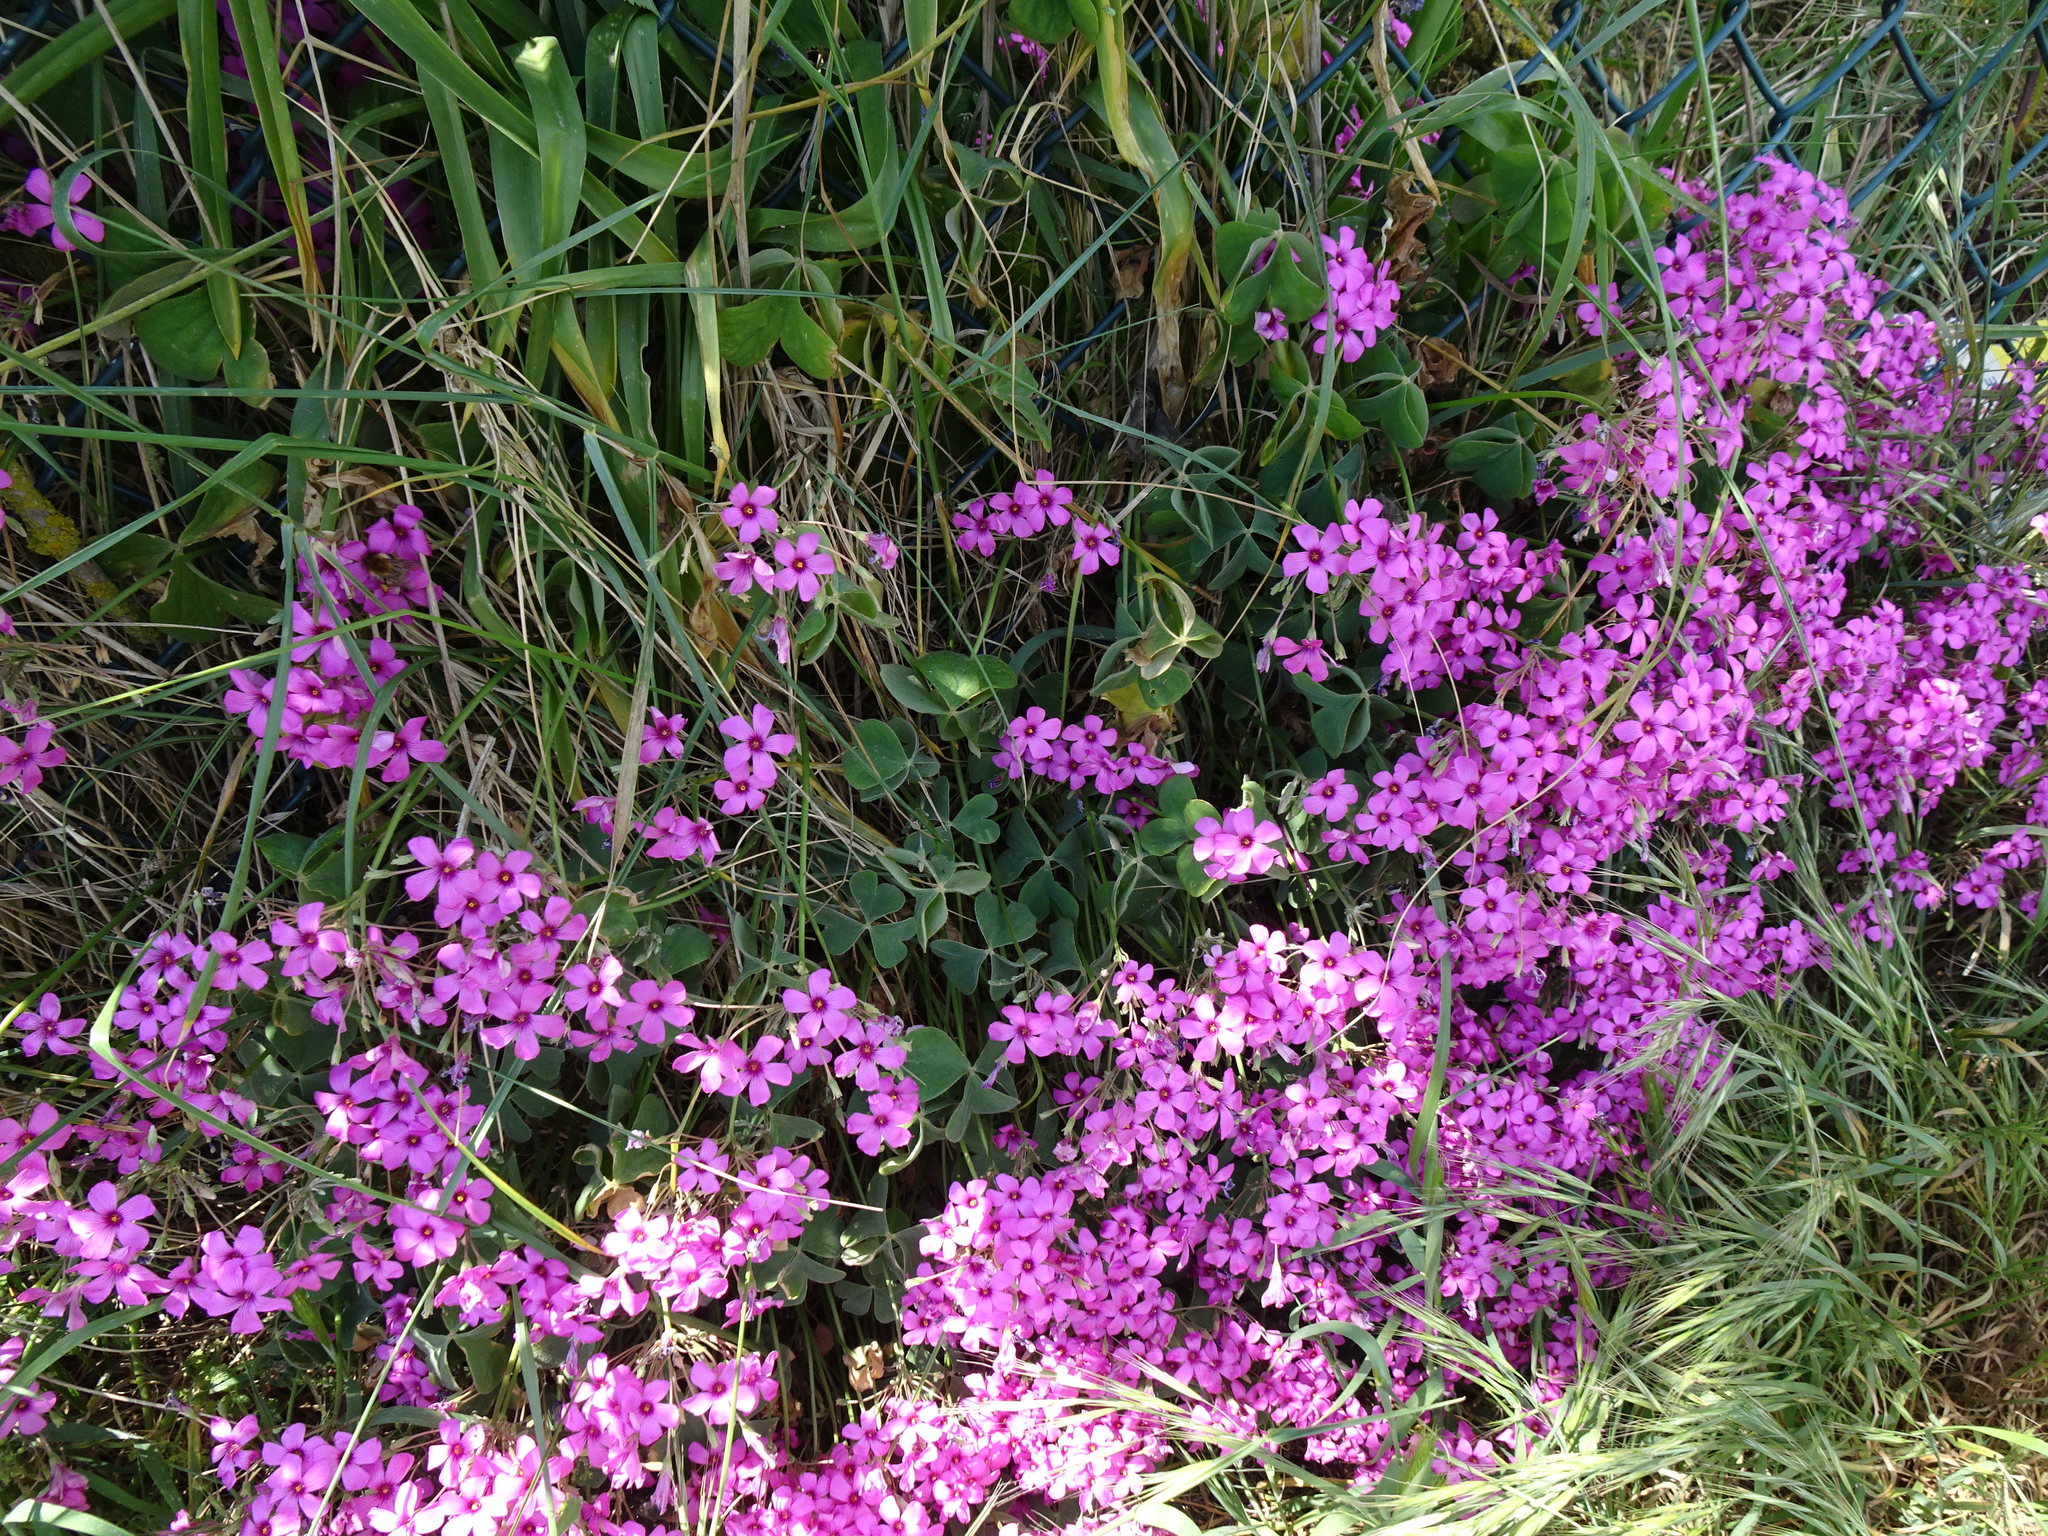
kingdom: Plantae
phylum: Tracheophyta
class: Magnoliopsida
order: Oxalidales
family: Oxalidaceae
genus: Oxalis
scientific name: Oxalis articulata
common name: Pink-sorrel
